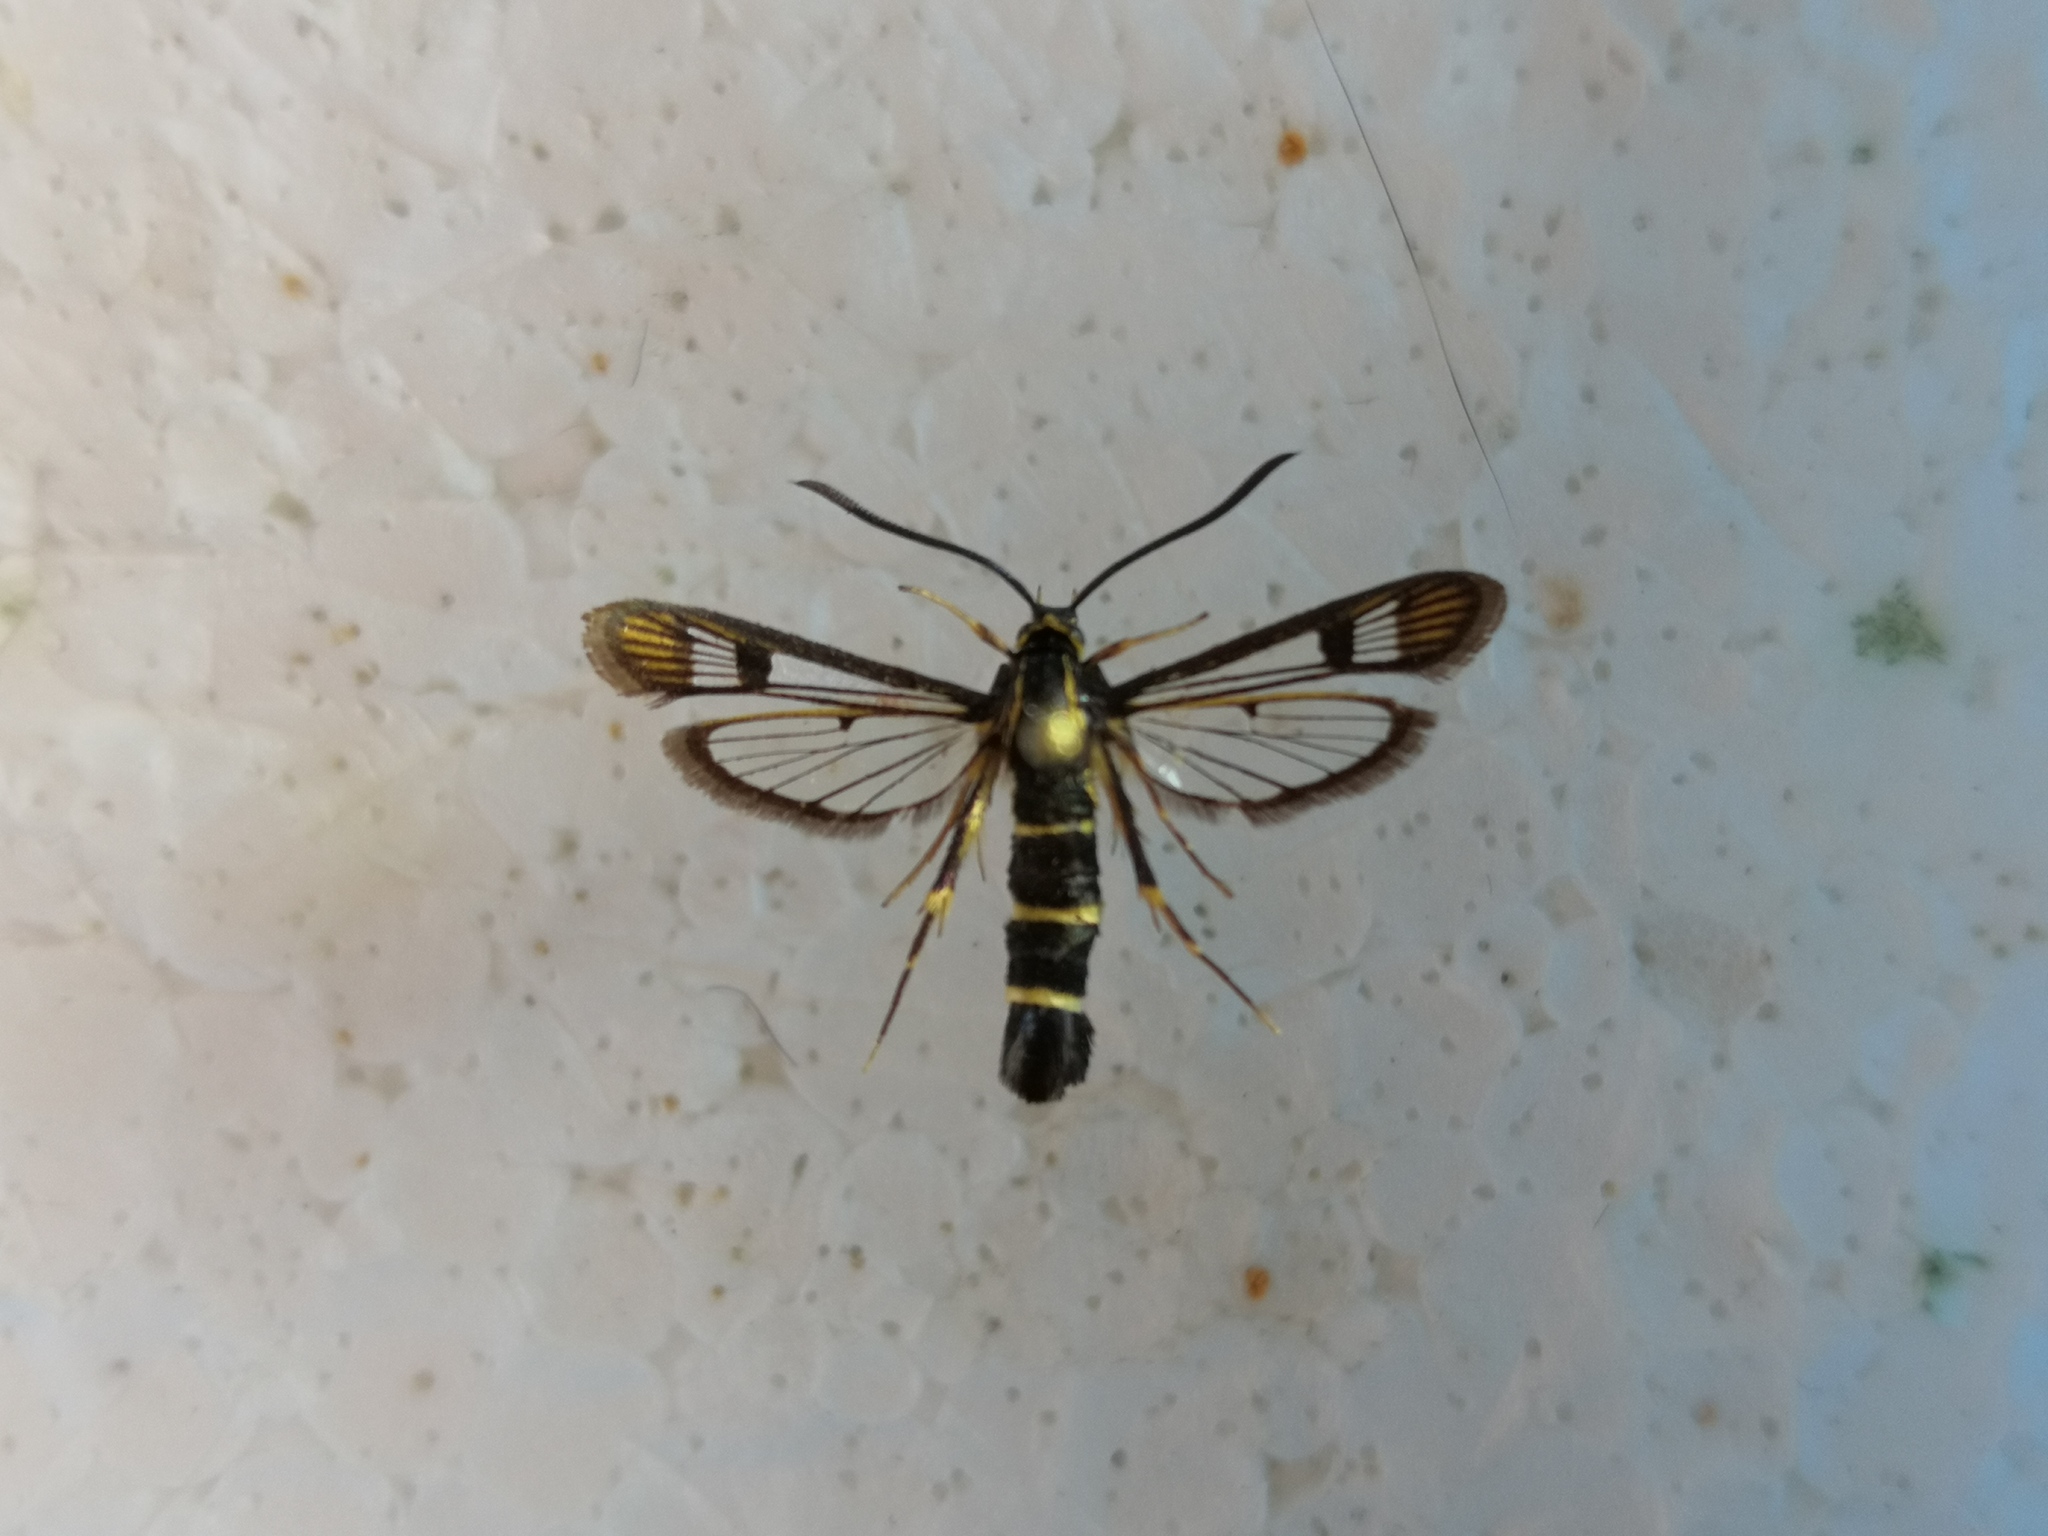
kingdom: Animalia
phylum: Arthropoda
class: Insecta
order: Lepidoptera
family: Sesiidae
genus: Synanthedon
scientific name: Synanthedon tipuliformis
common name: Currant clearwing
